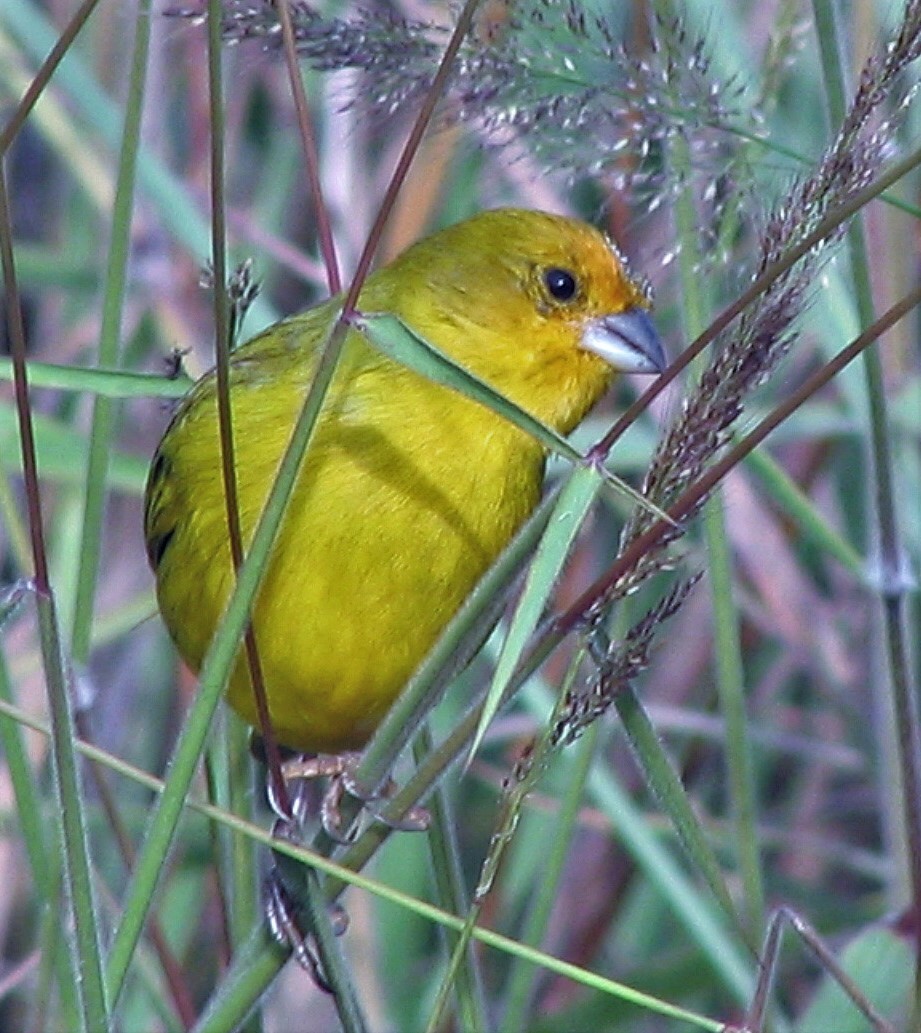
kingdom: Animalia
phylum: Chordata
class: Aves
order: Passeriformes
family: Thraupidae
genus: Sicalis
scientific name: Sicalis flaveola
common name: Saffron finch
